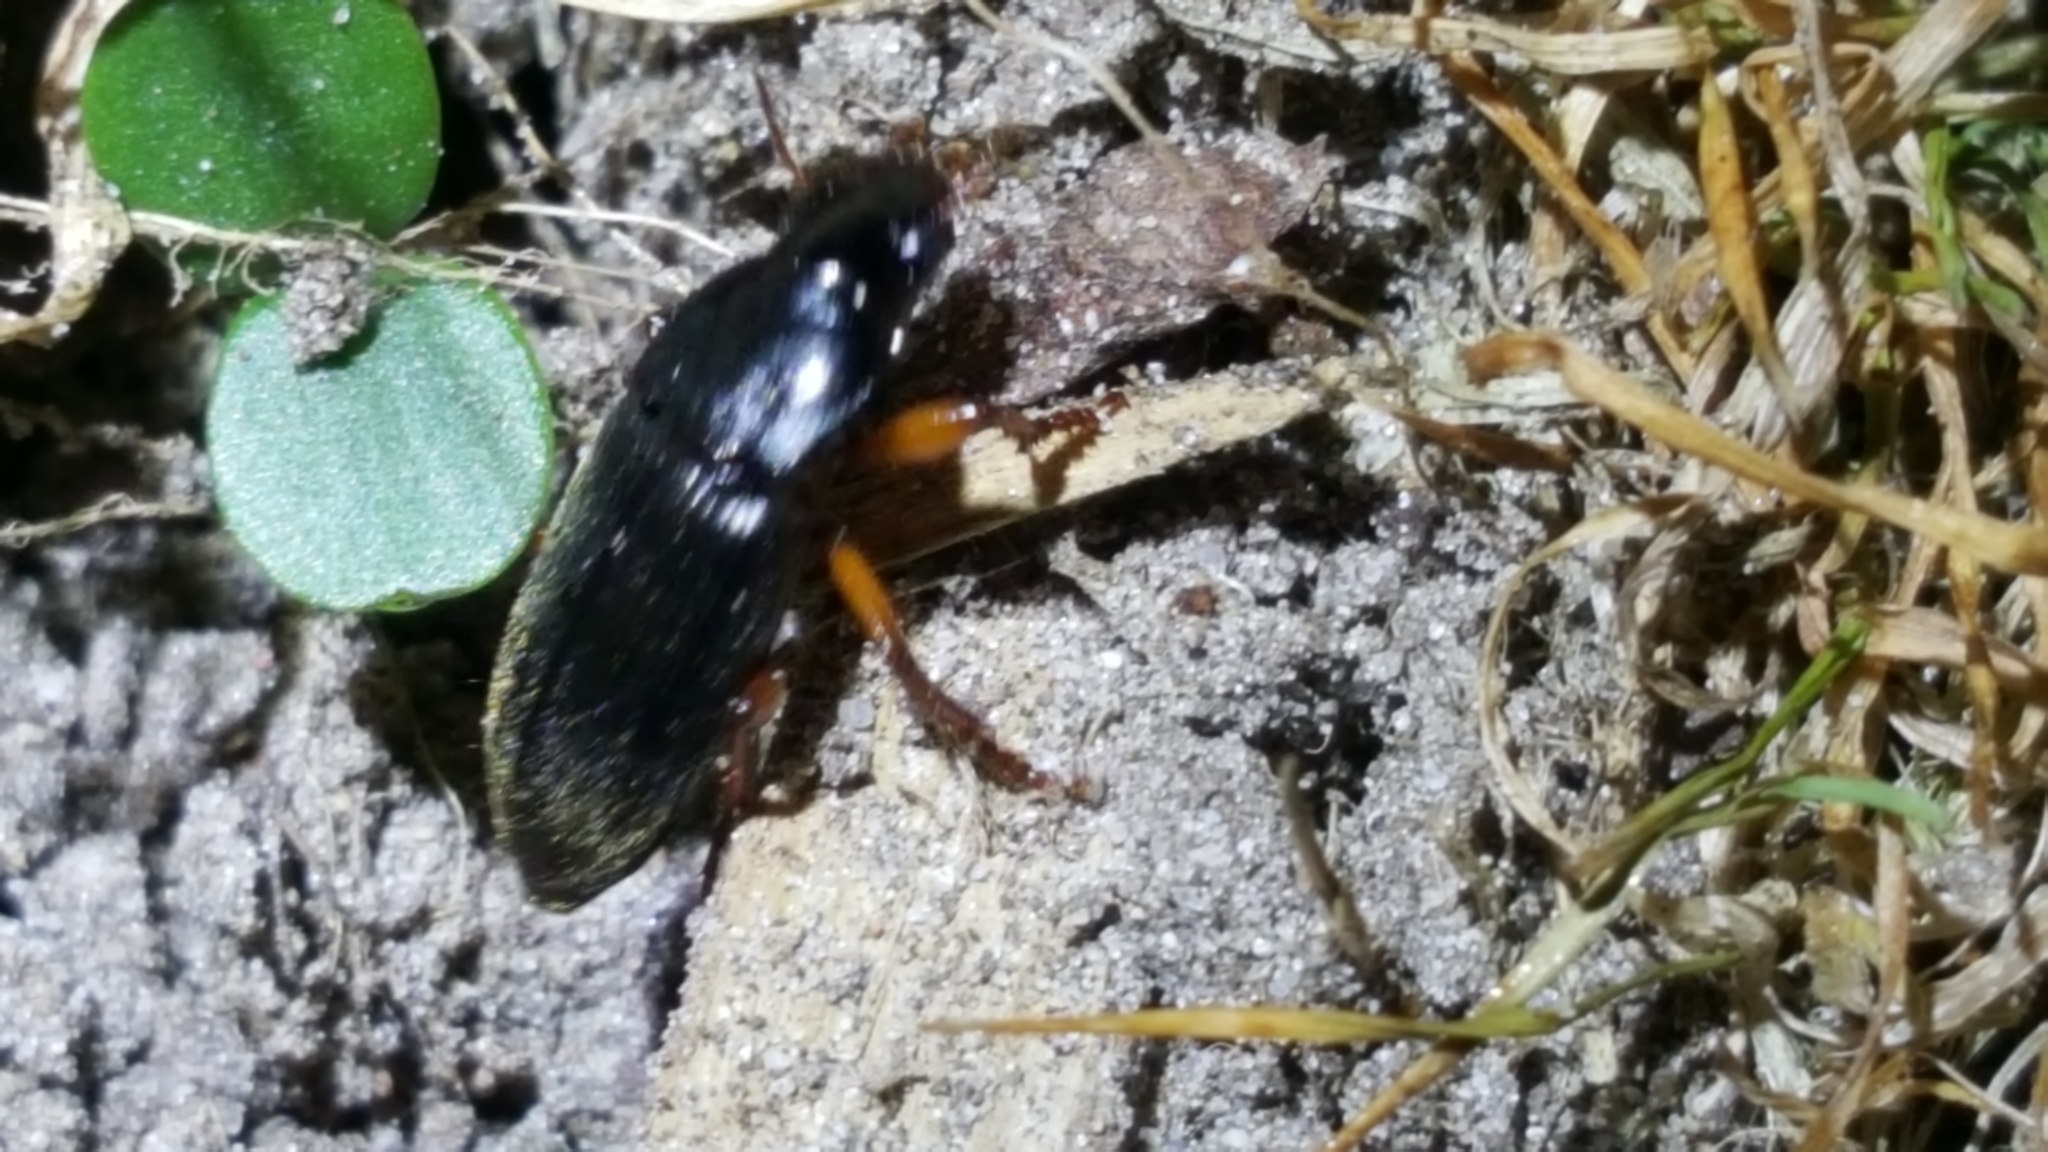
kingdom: Animalia
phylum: Arthropoda
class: Insecta
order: Coleoptera
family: Carabidae
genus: Harpalus
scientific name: Harpalus rufipes
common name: Strawberry harp ground beetle
